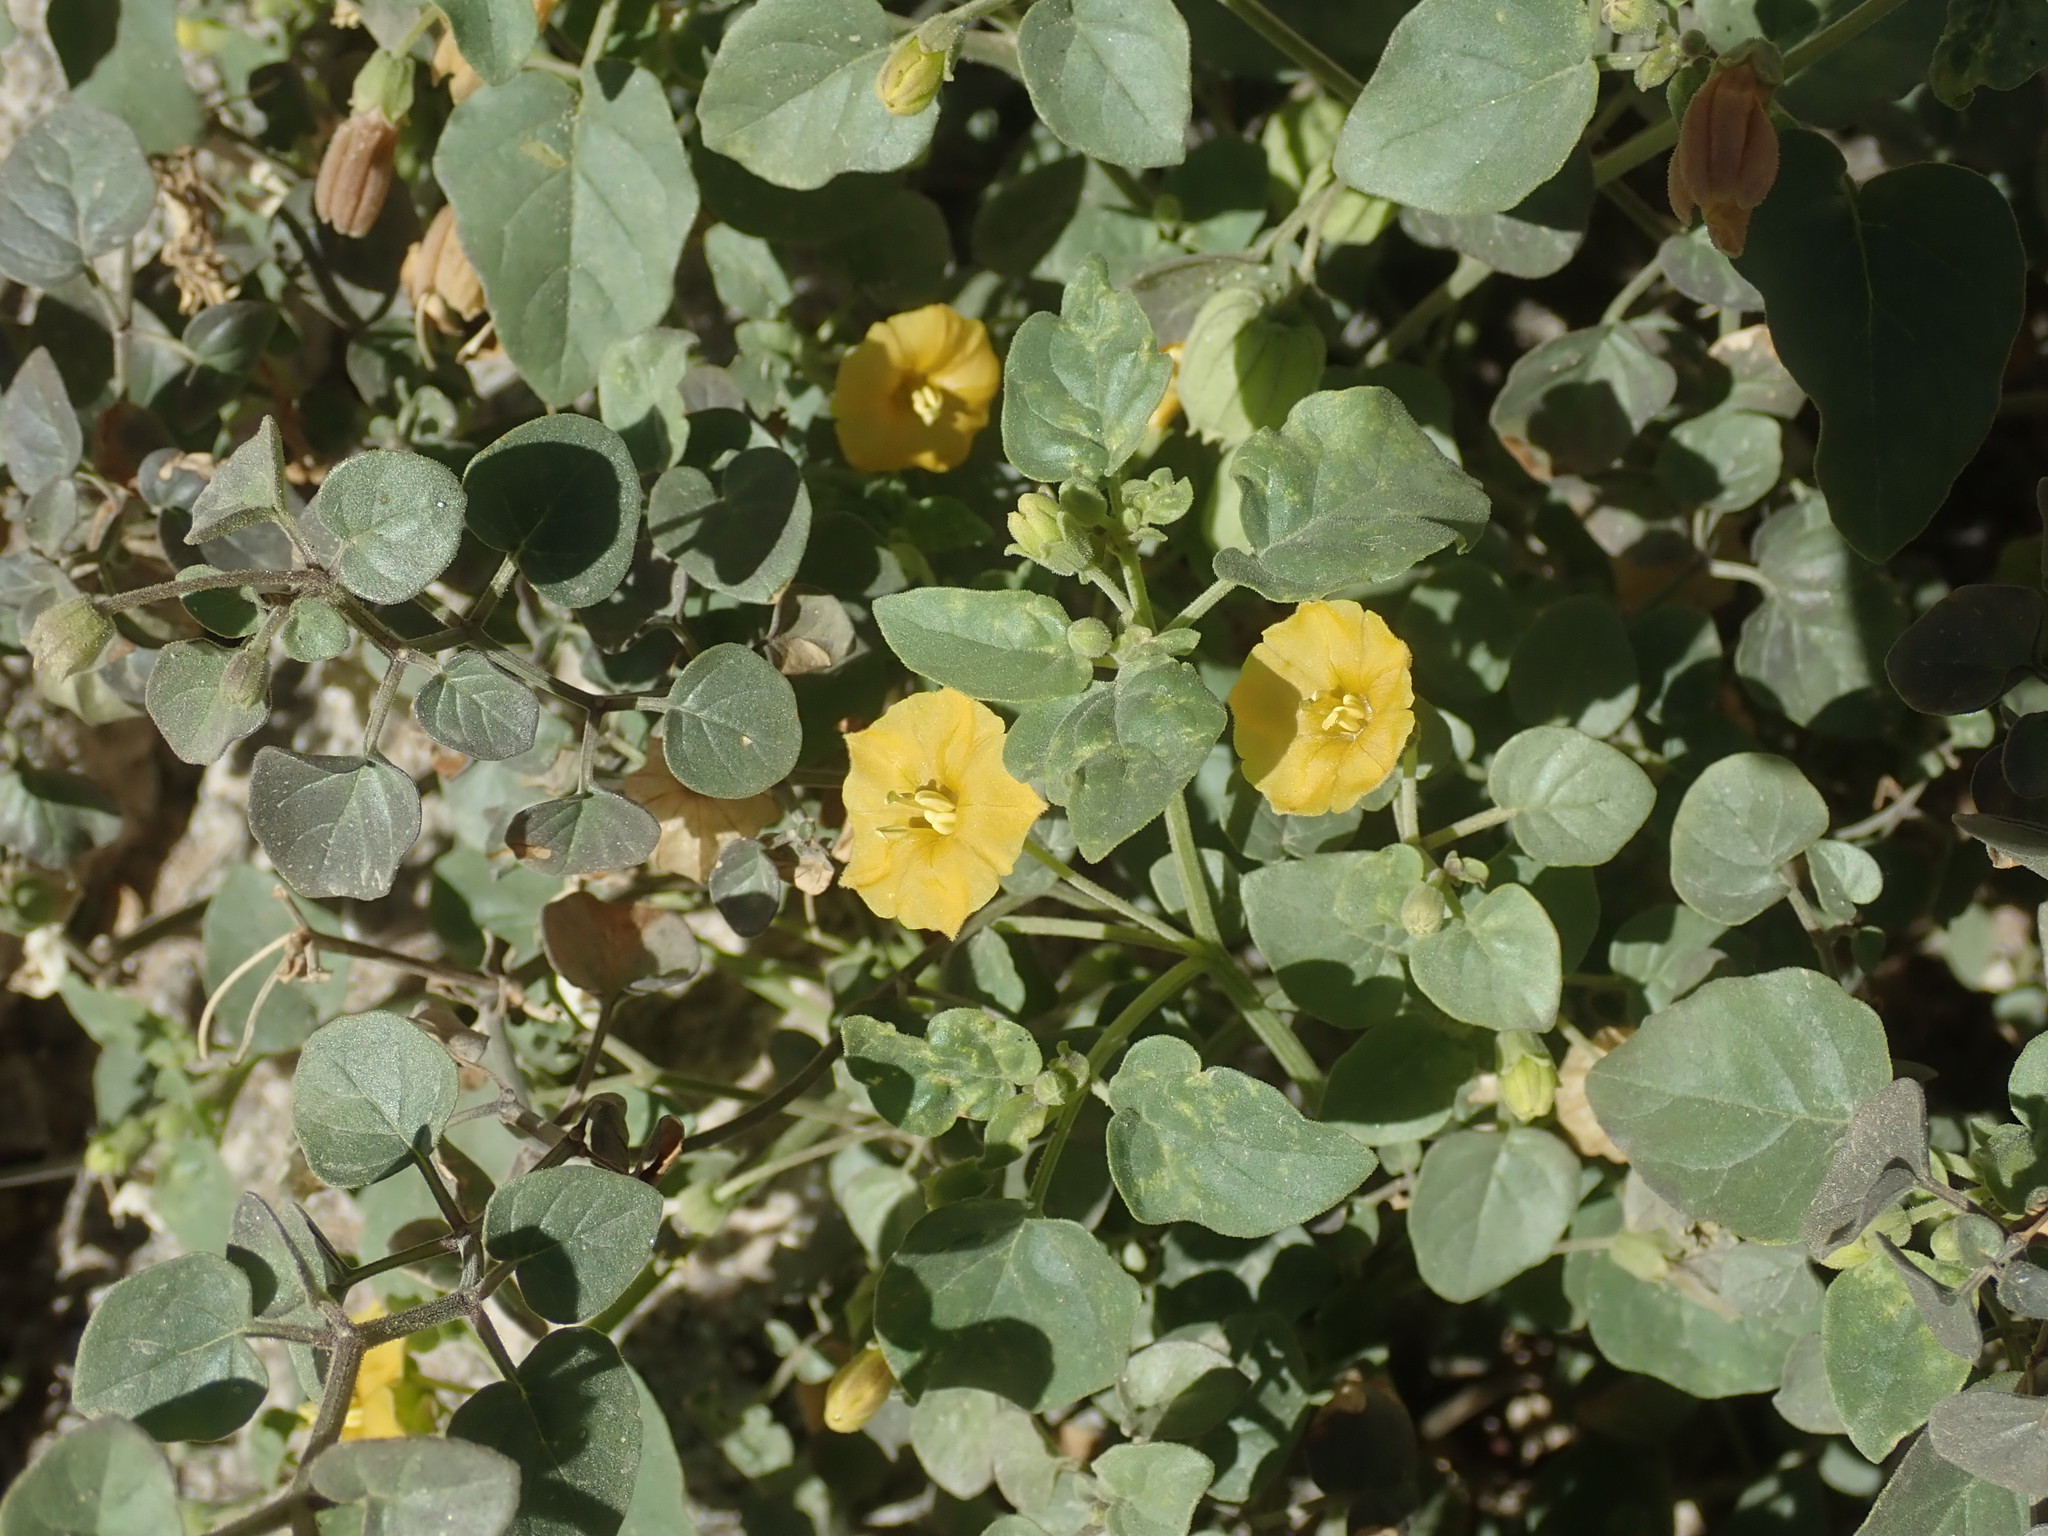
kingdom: Plantae
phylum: Tracheophyta
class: Magnoliopsida
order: Solanales
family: Solanaceae
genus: Physalis
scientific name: Physalis crassifolia
